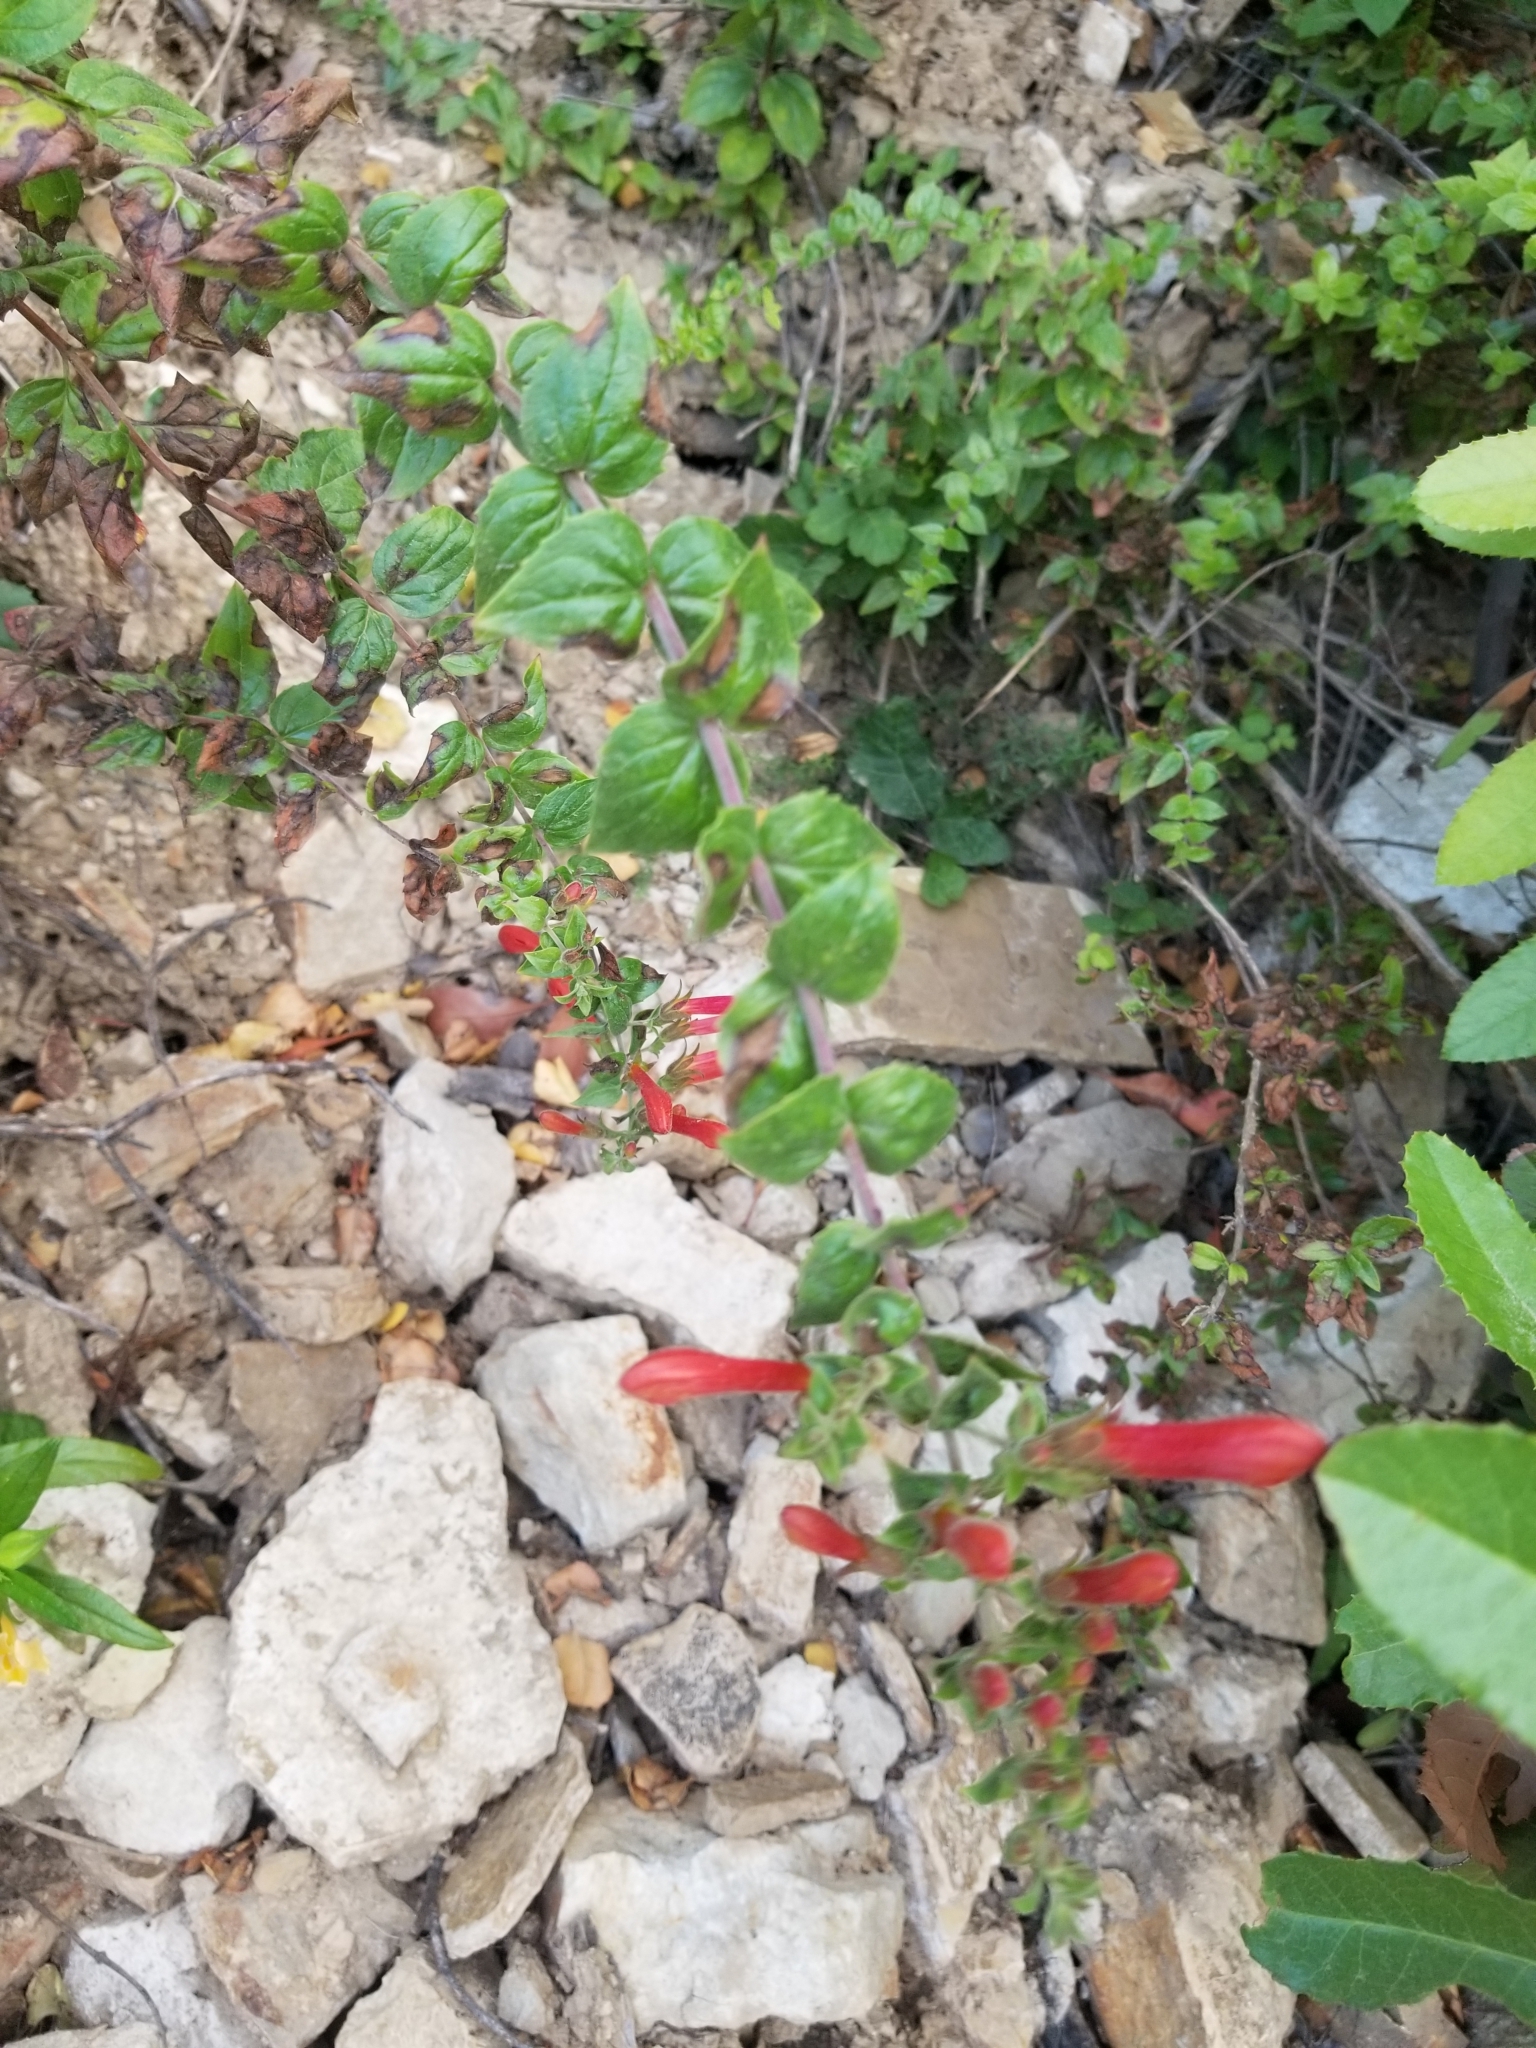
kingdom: Plantae
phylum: Tracheophyta
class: Magnoliopsida
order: Lamiales
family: Plantaginaceae
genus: Keckiella
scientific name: Keckiella cordifolia
